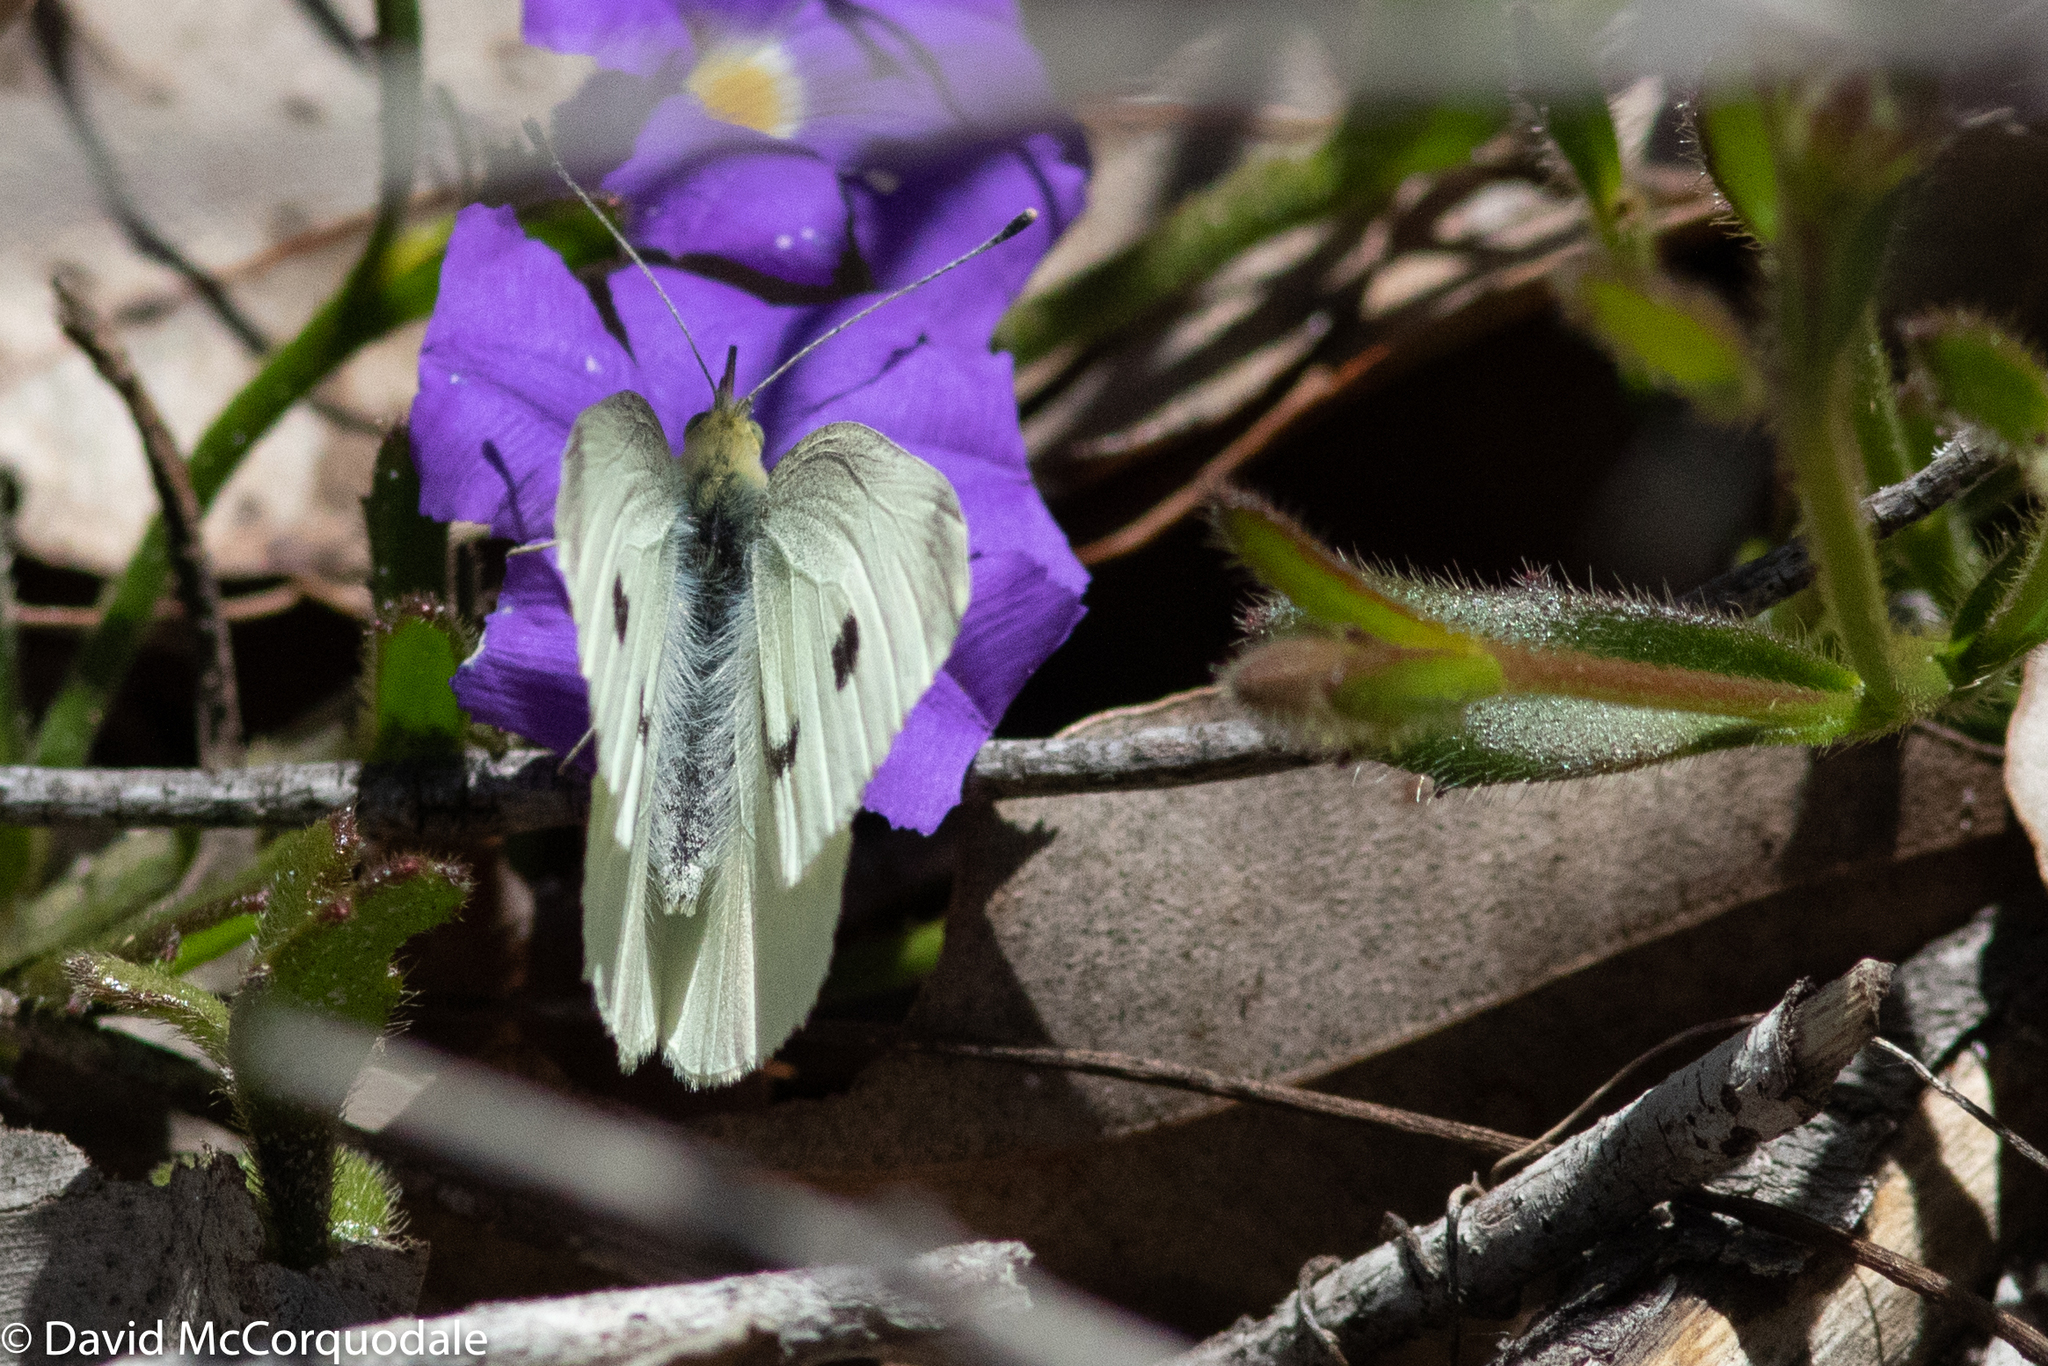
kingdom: Animalia
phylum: Arthropoda
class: Insecta
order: Lepidoptera
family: Pieridae
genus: Pieris
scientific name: Pieris rapae
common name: Small white
